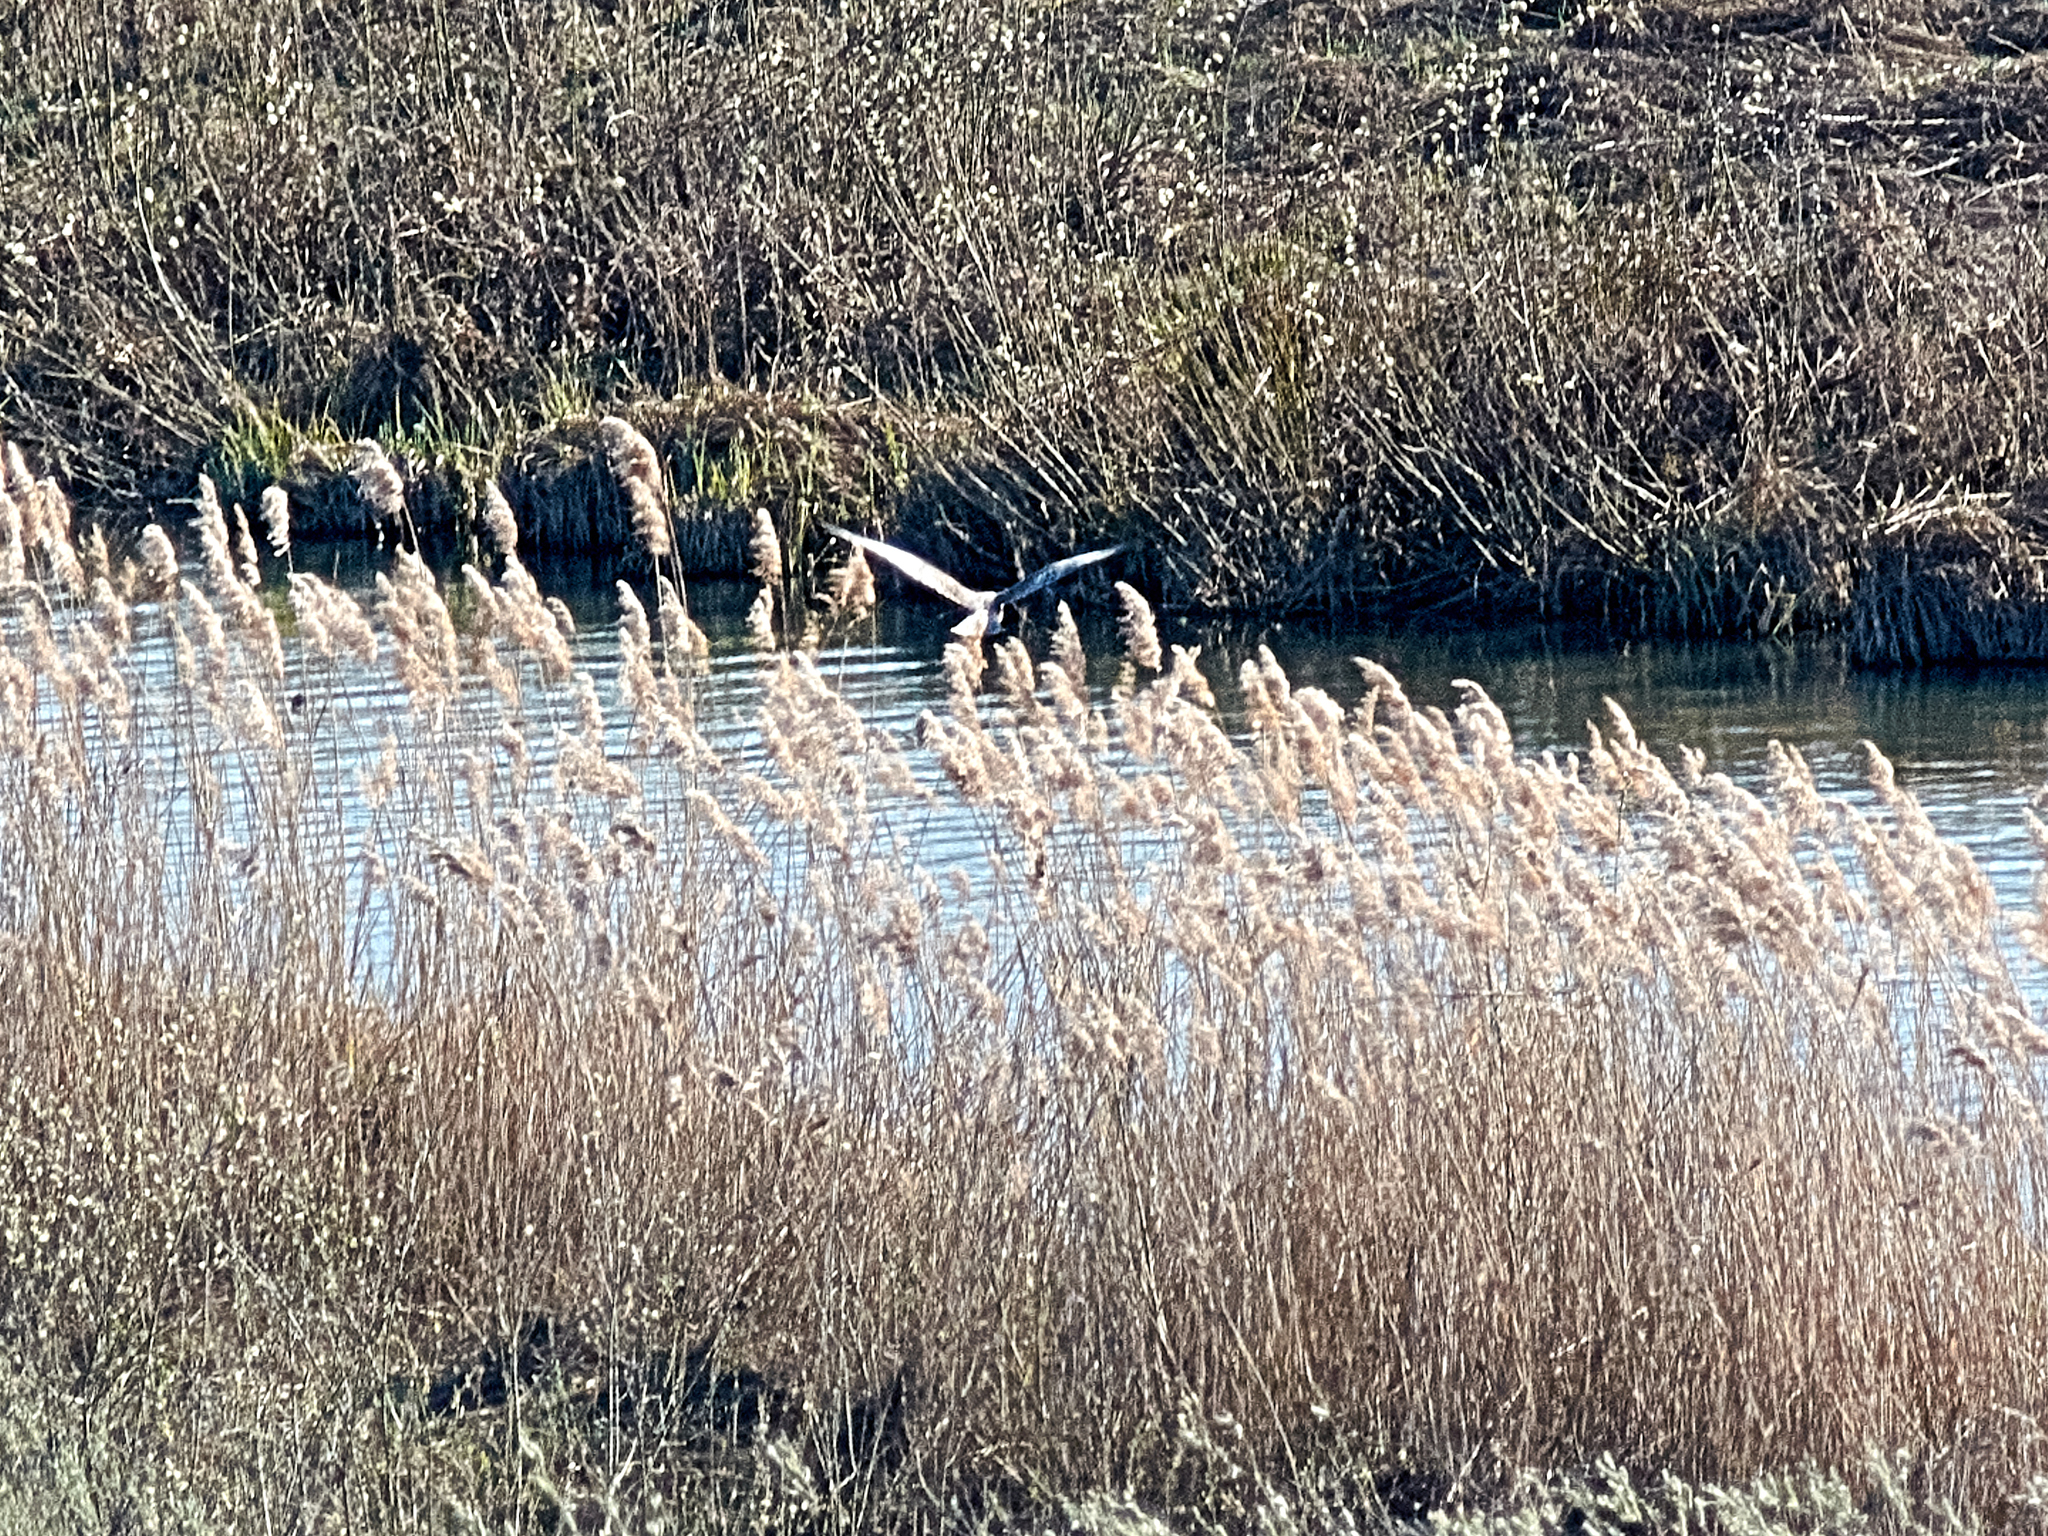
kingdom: Animalia
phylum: Chordata
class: Aves
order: Accipitriformes
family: Accipitridae
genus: Circus
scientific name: Circus aeruginosus
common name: Western marsh harrier
